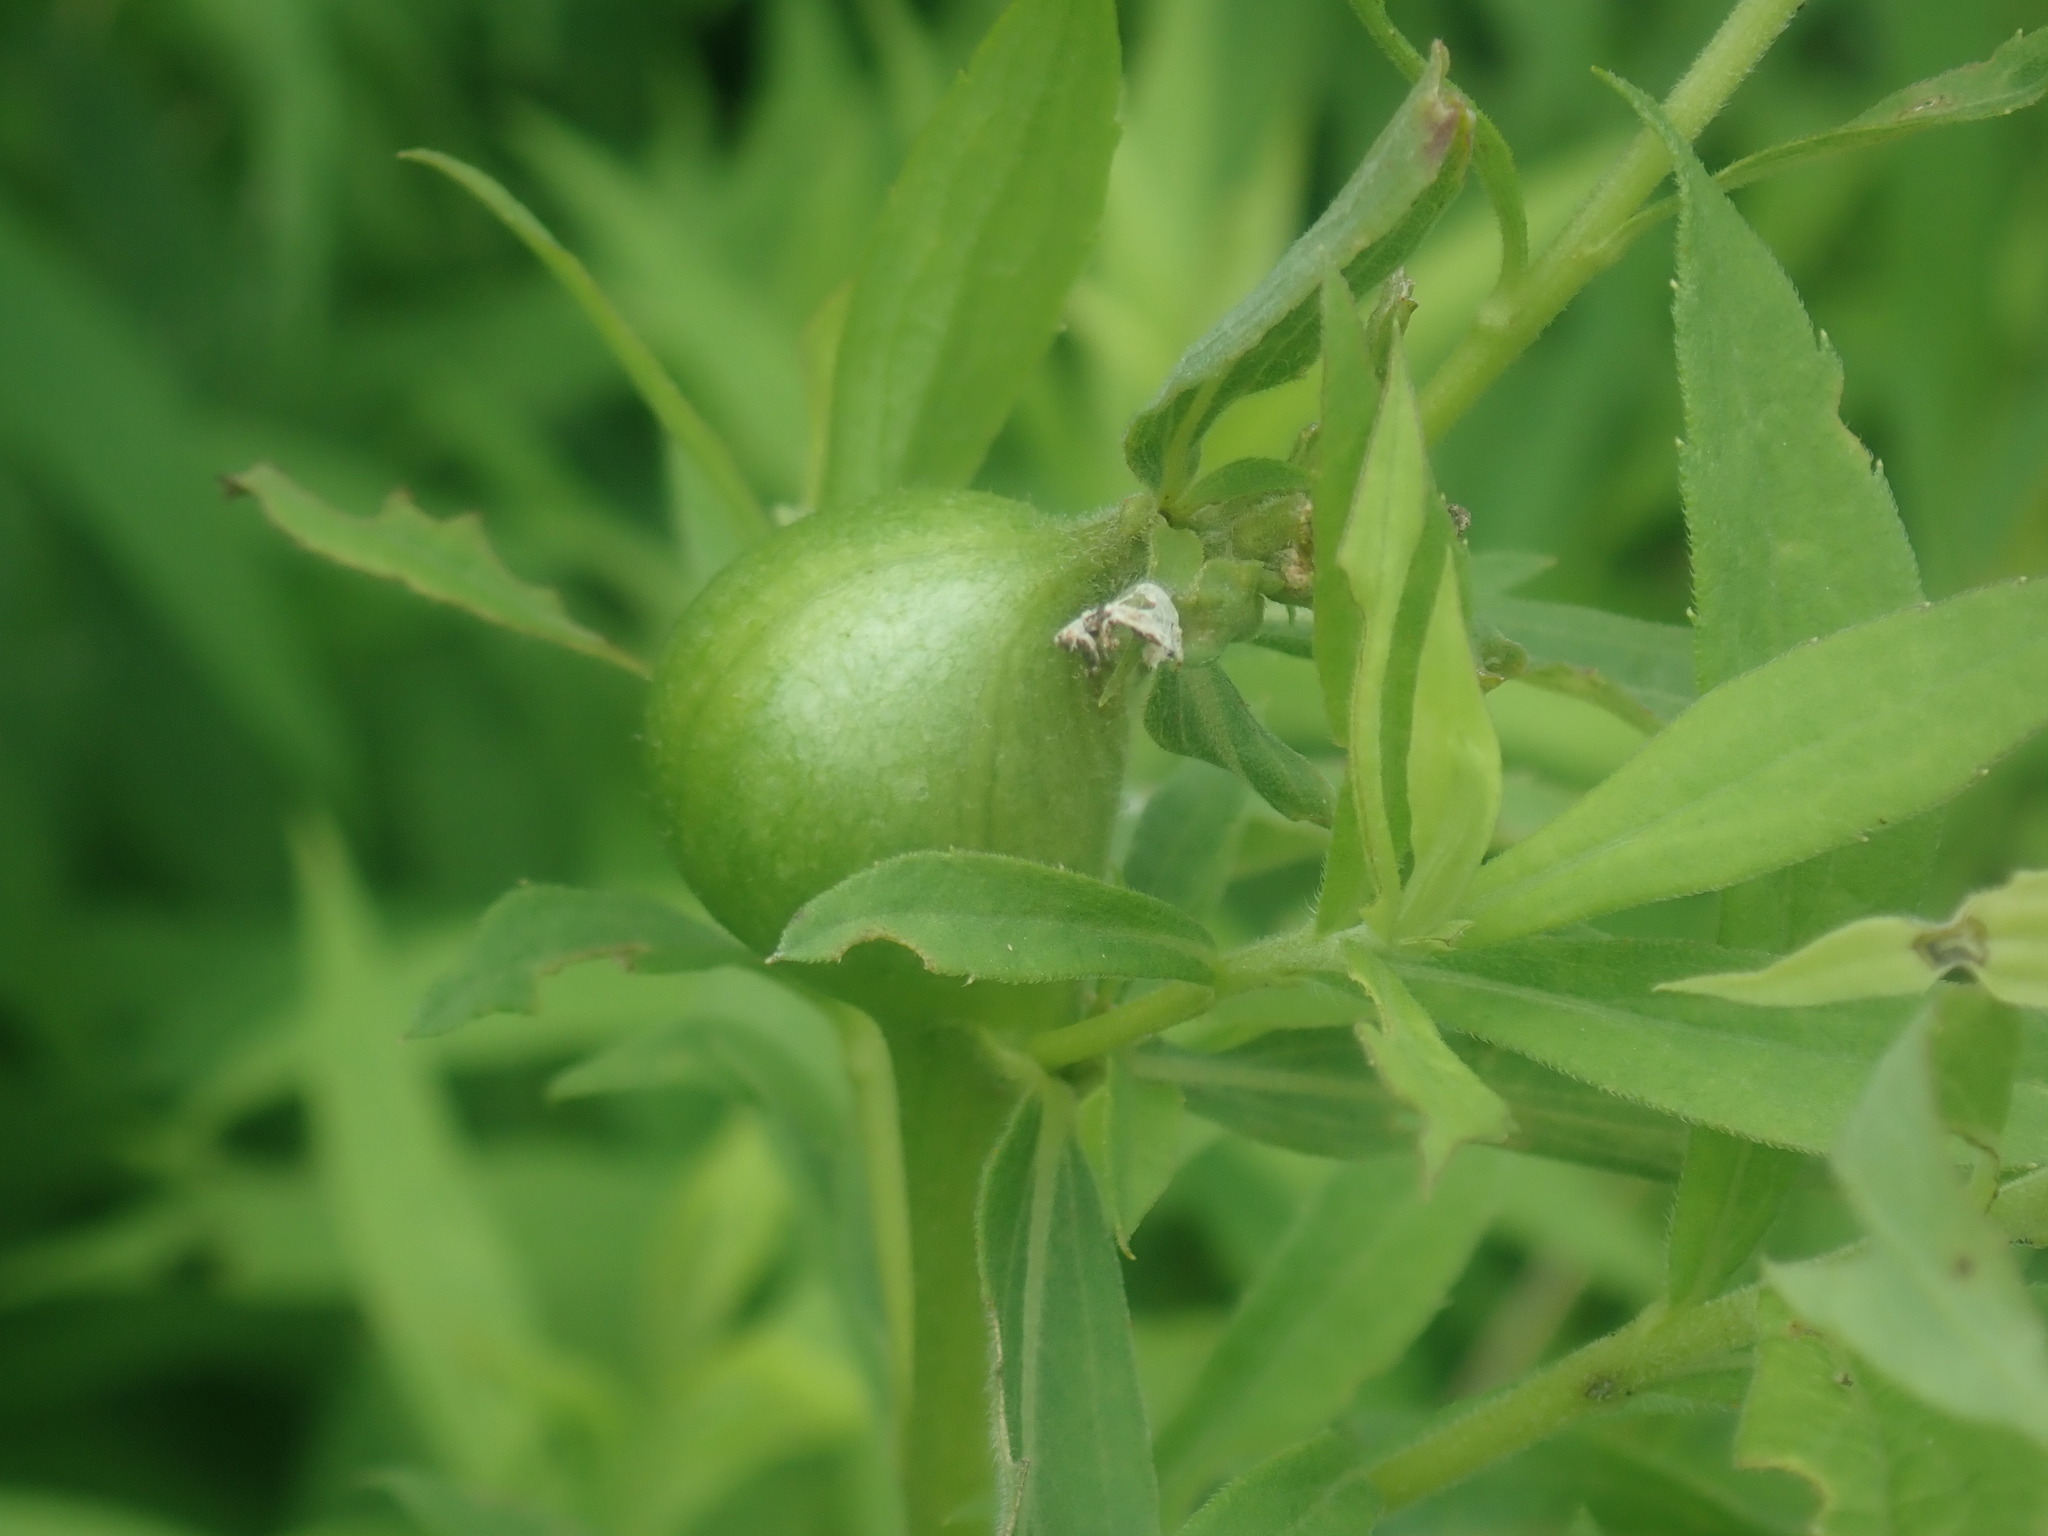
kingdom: Animalia
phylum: Arthropoda
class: Insecta
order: Diptera
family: Tephritidae
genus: Eurosta
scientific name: Eurosta solidaginis
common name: Goldenrod gall fly
